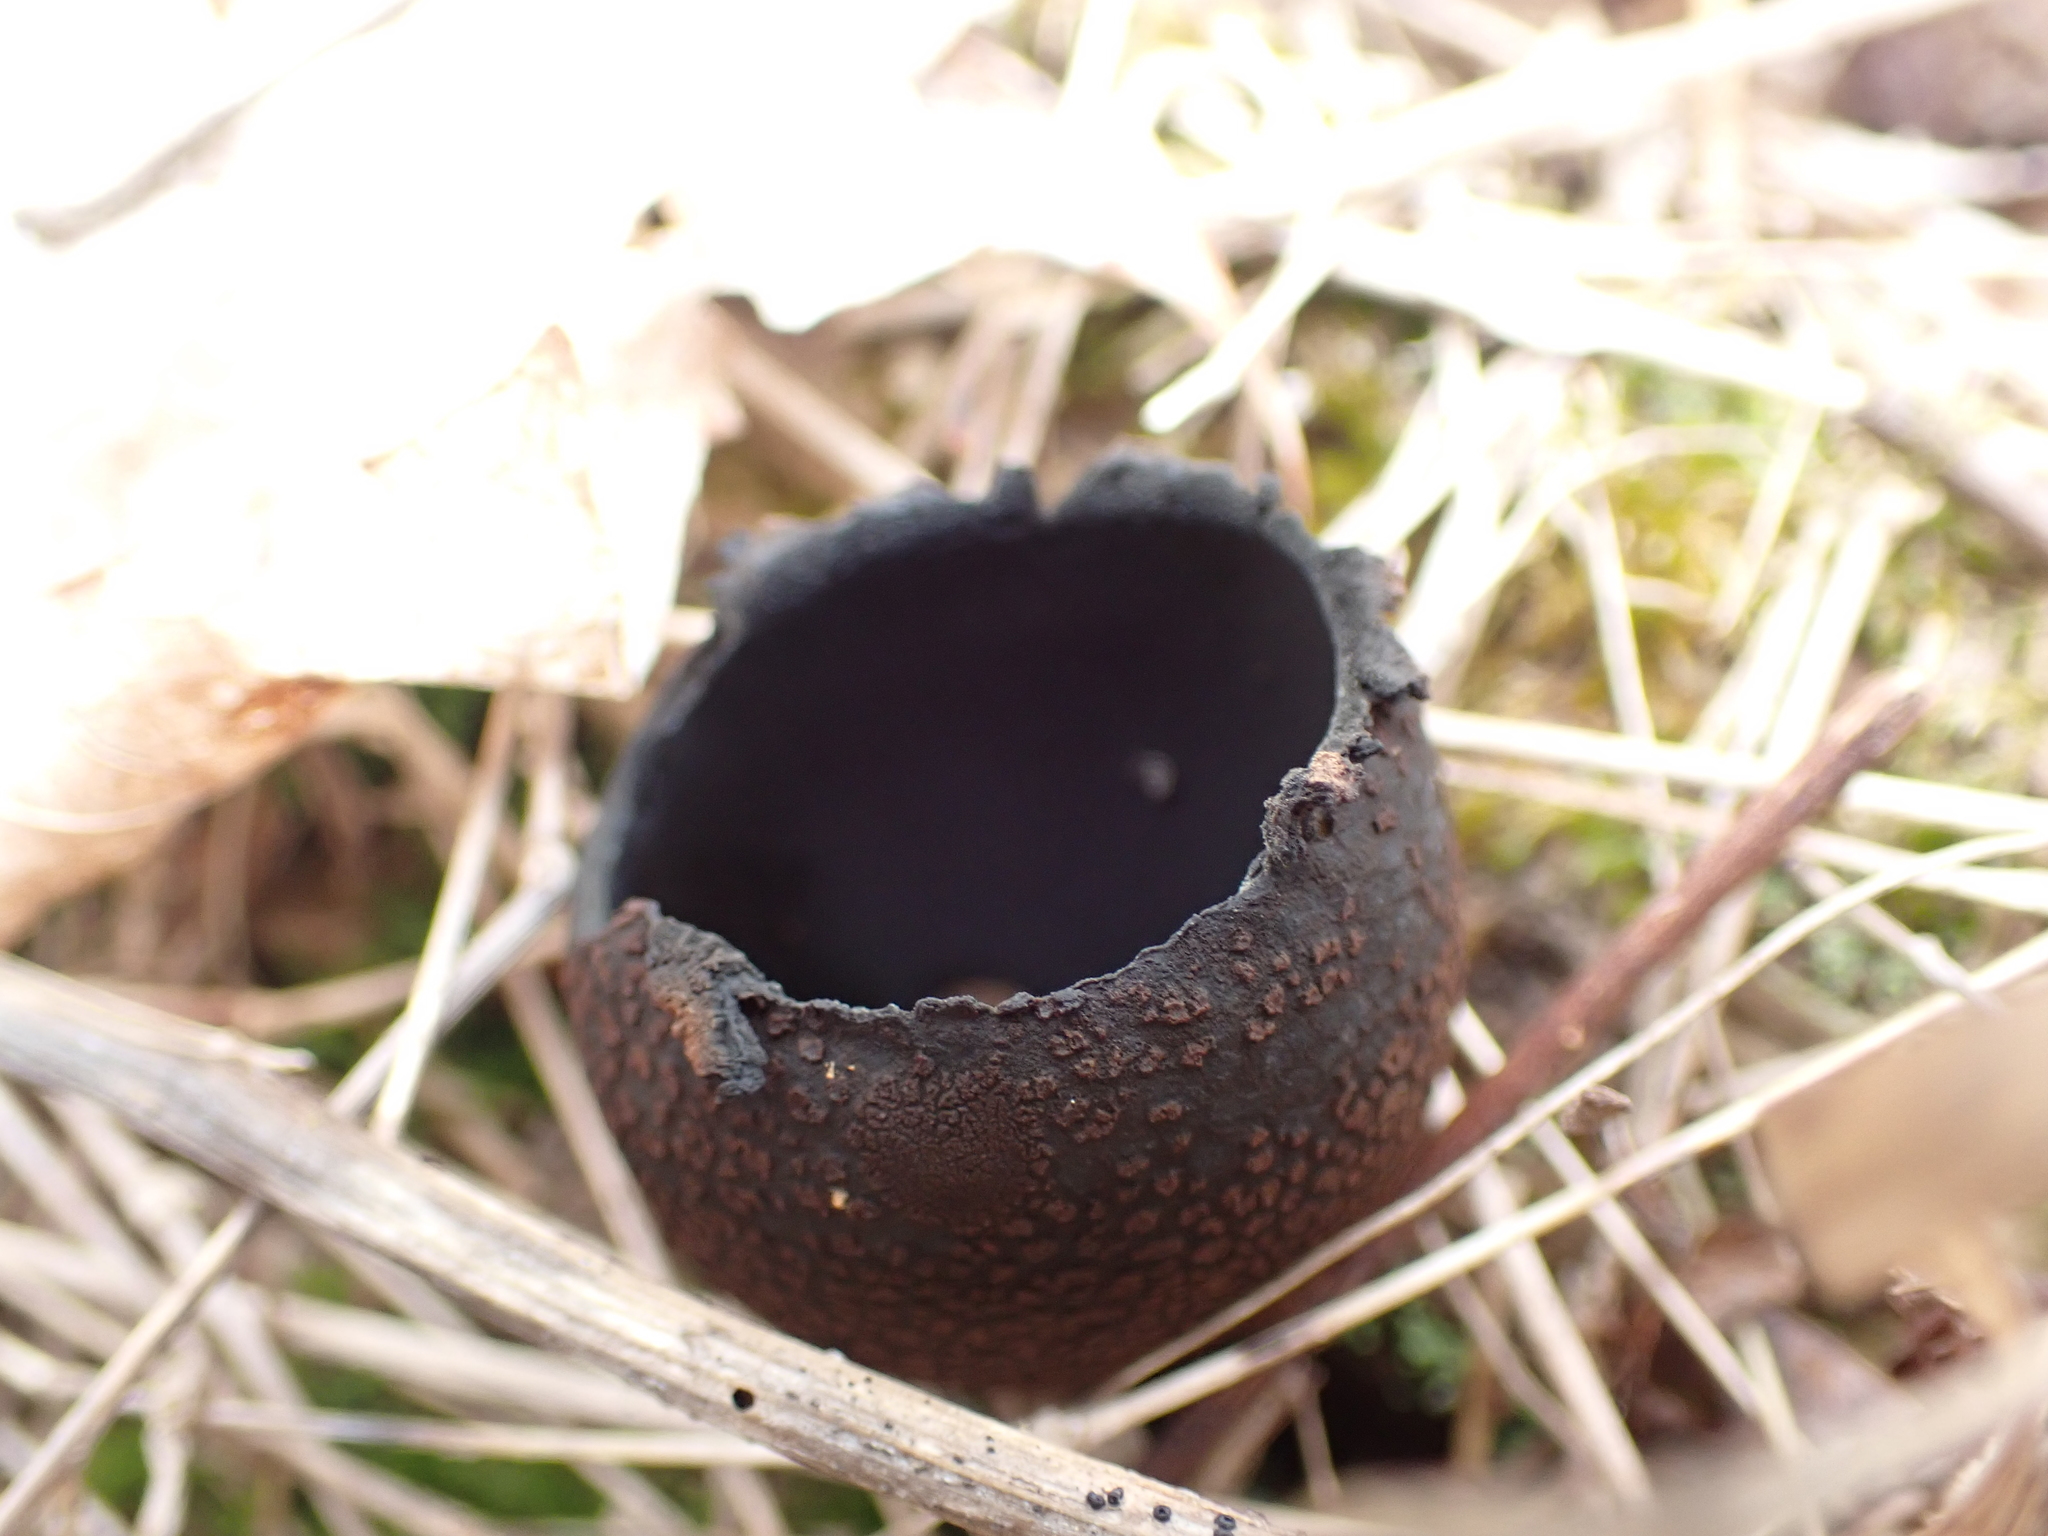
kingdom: Fungi
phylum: Ascomycota
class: Pezizomycetes
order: Pezizales
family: Sarcosomataceae
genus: Urnula
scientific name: Urnula craterium
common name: Devil's urn
